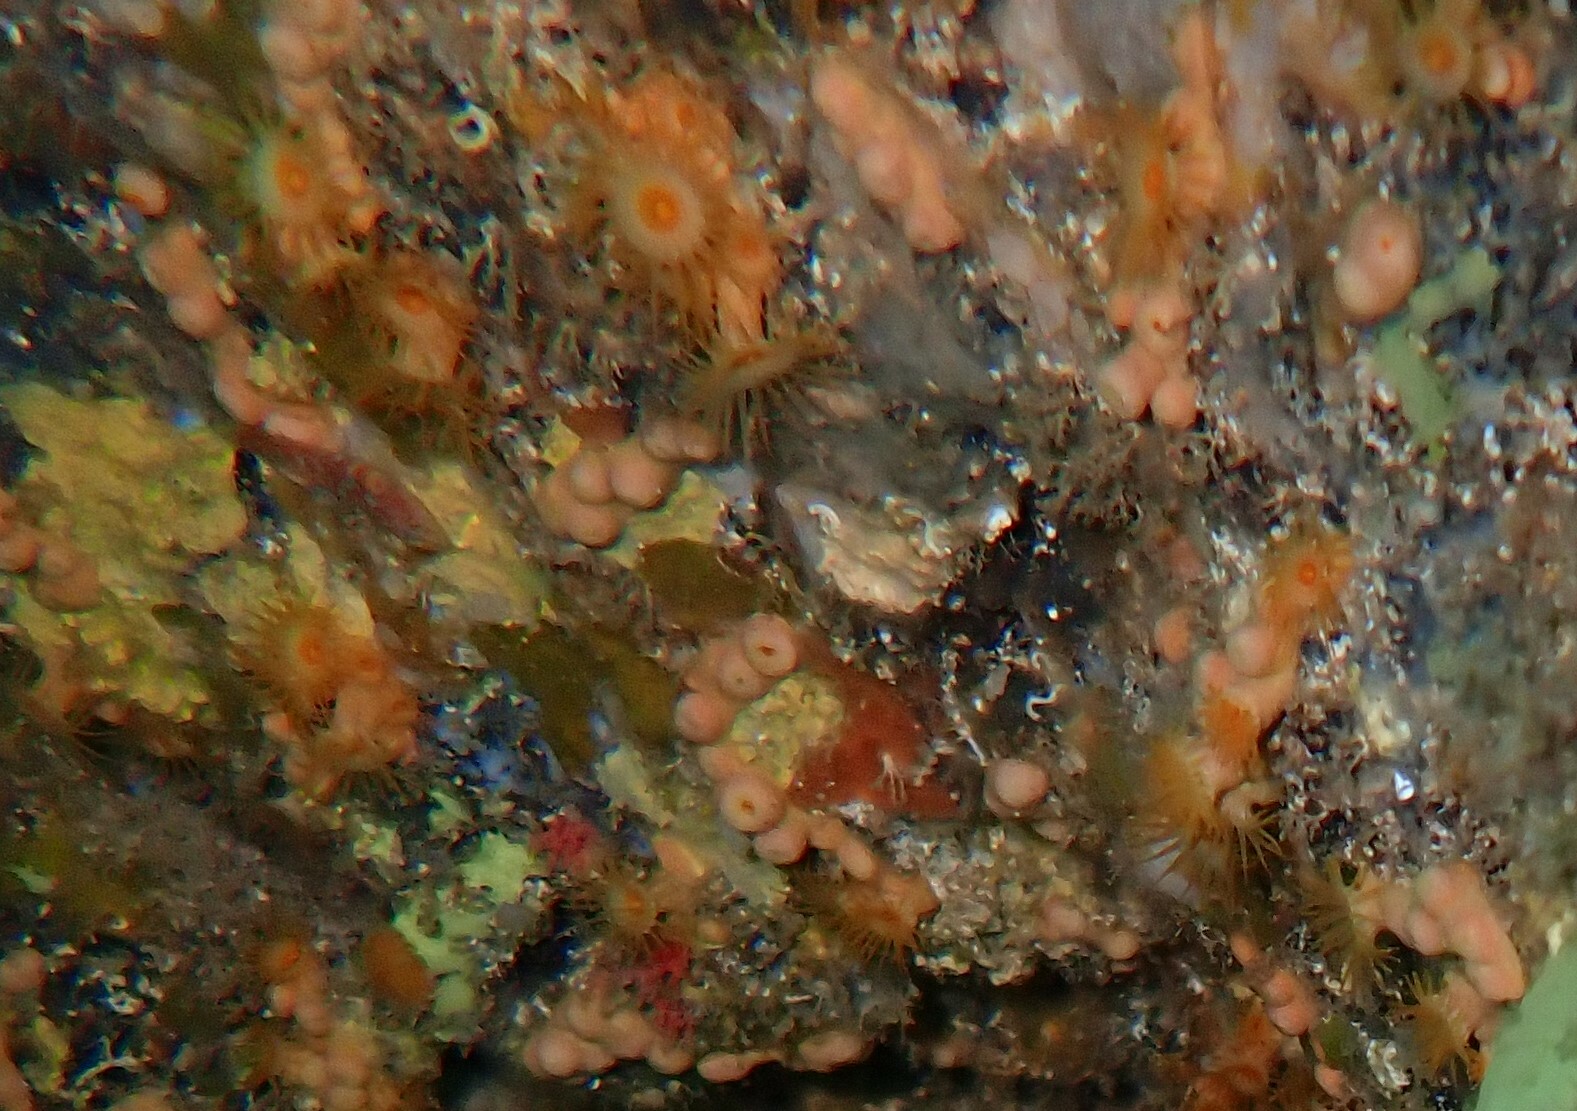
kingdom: Animalia
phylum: Cnidaria
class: Anthozoa
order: Zoantharia
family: Parazoanthidae
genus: Parazoanthus
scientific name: Parazoanthus axinellae
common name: Yellow cluster anemone
